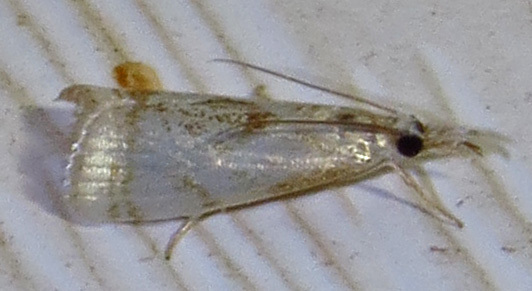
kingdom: Animalia
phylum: Arthropoda
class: Insecta
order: Lepidoptera
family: Crambidae
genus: Microcrambus
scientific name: Microcrambus elegans
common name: Elegant grass-veneer
